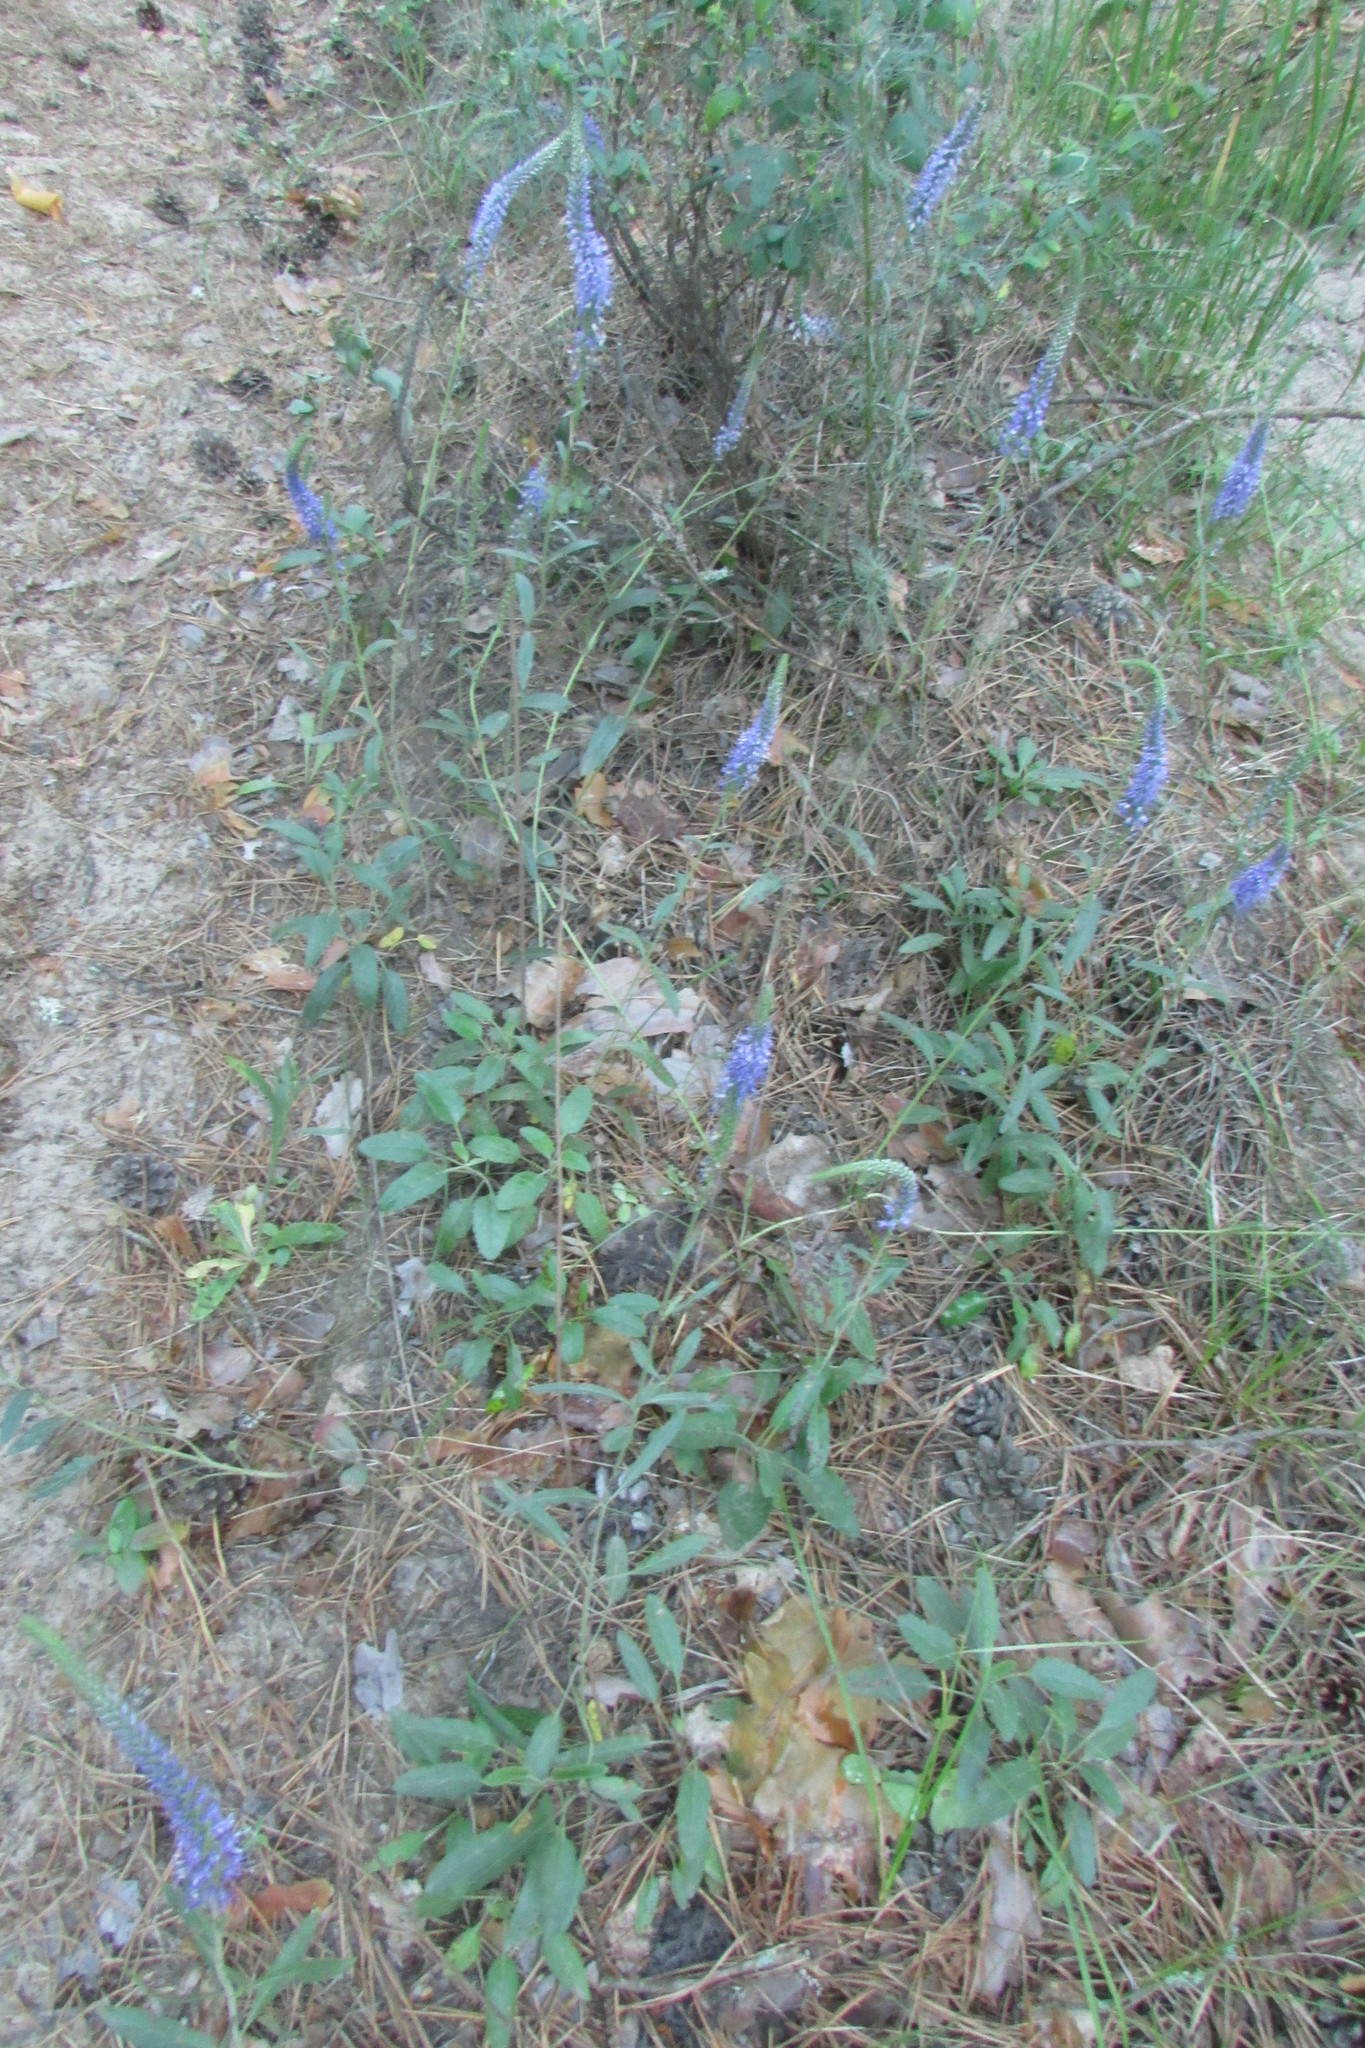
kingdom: Plantae
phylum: Tracheophyta
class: Magnoliopsida
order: Lamiales
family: Plantaginaceae
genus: Veronica
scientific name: Veronica spicata
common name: Spiked speedwell
